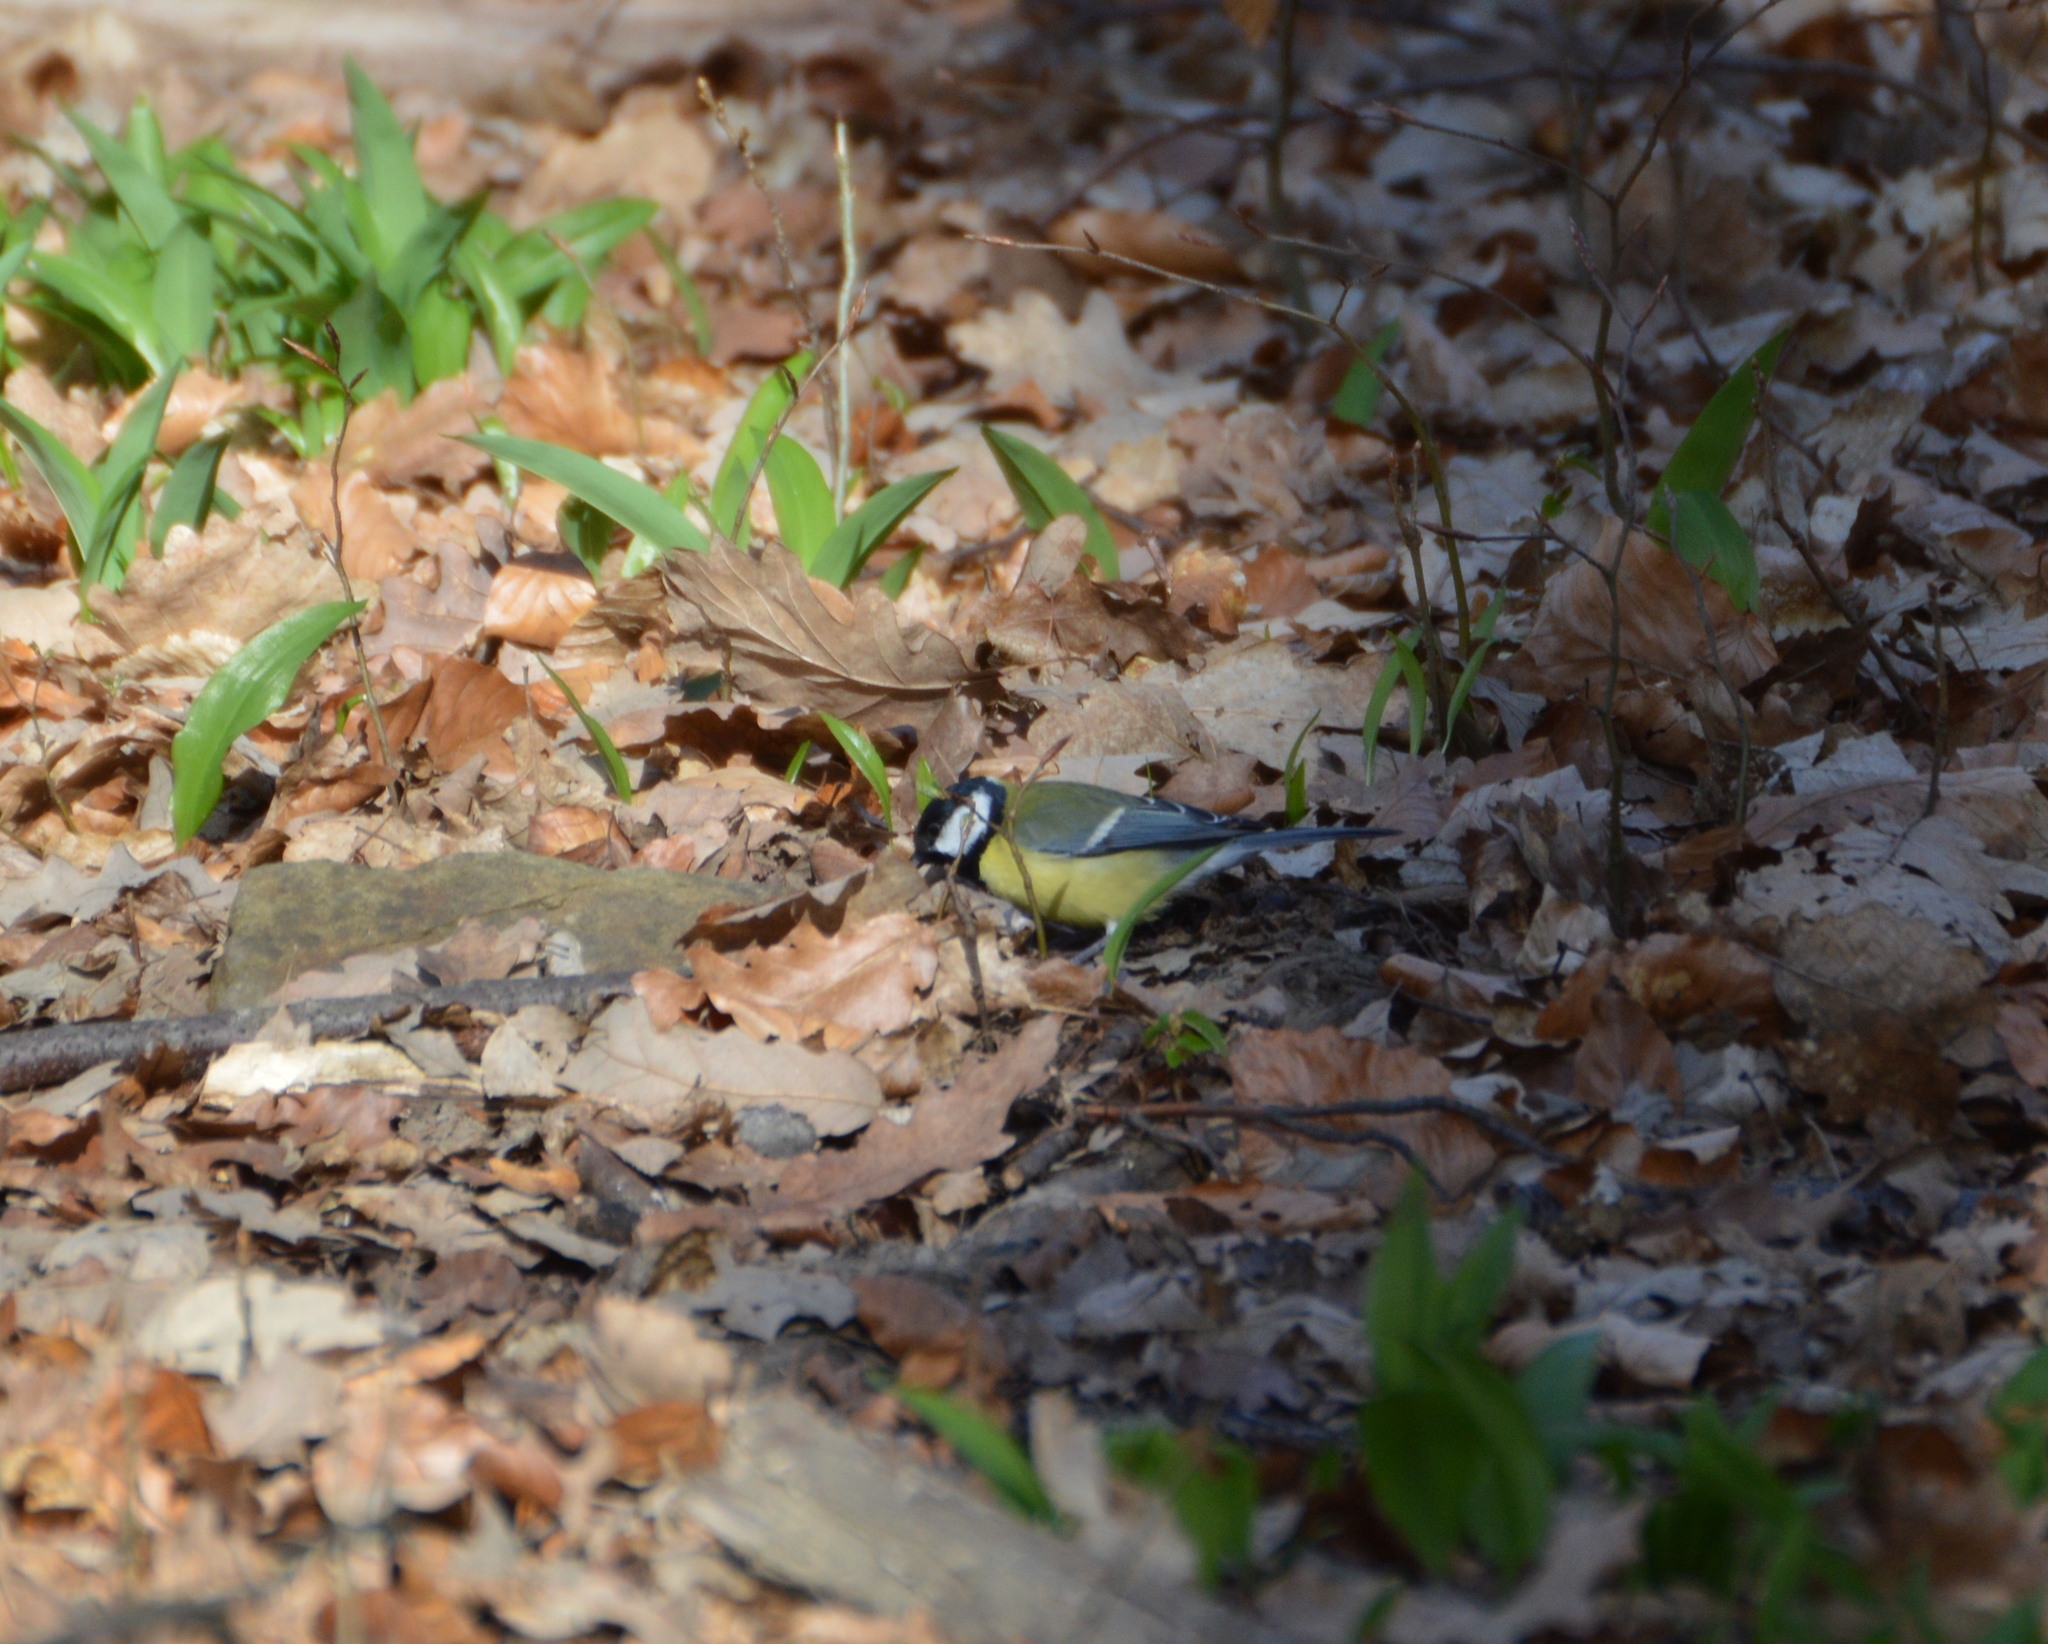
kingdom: Animalia
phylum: Chordata
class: Aves
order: Passeriformes
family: Paridae
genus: Parus
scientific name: Parus major
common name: Great tit
